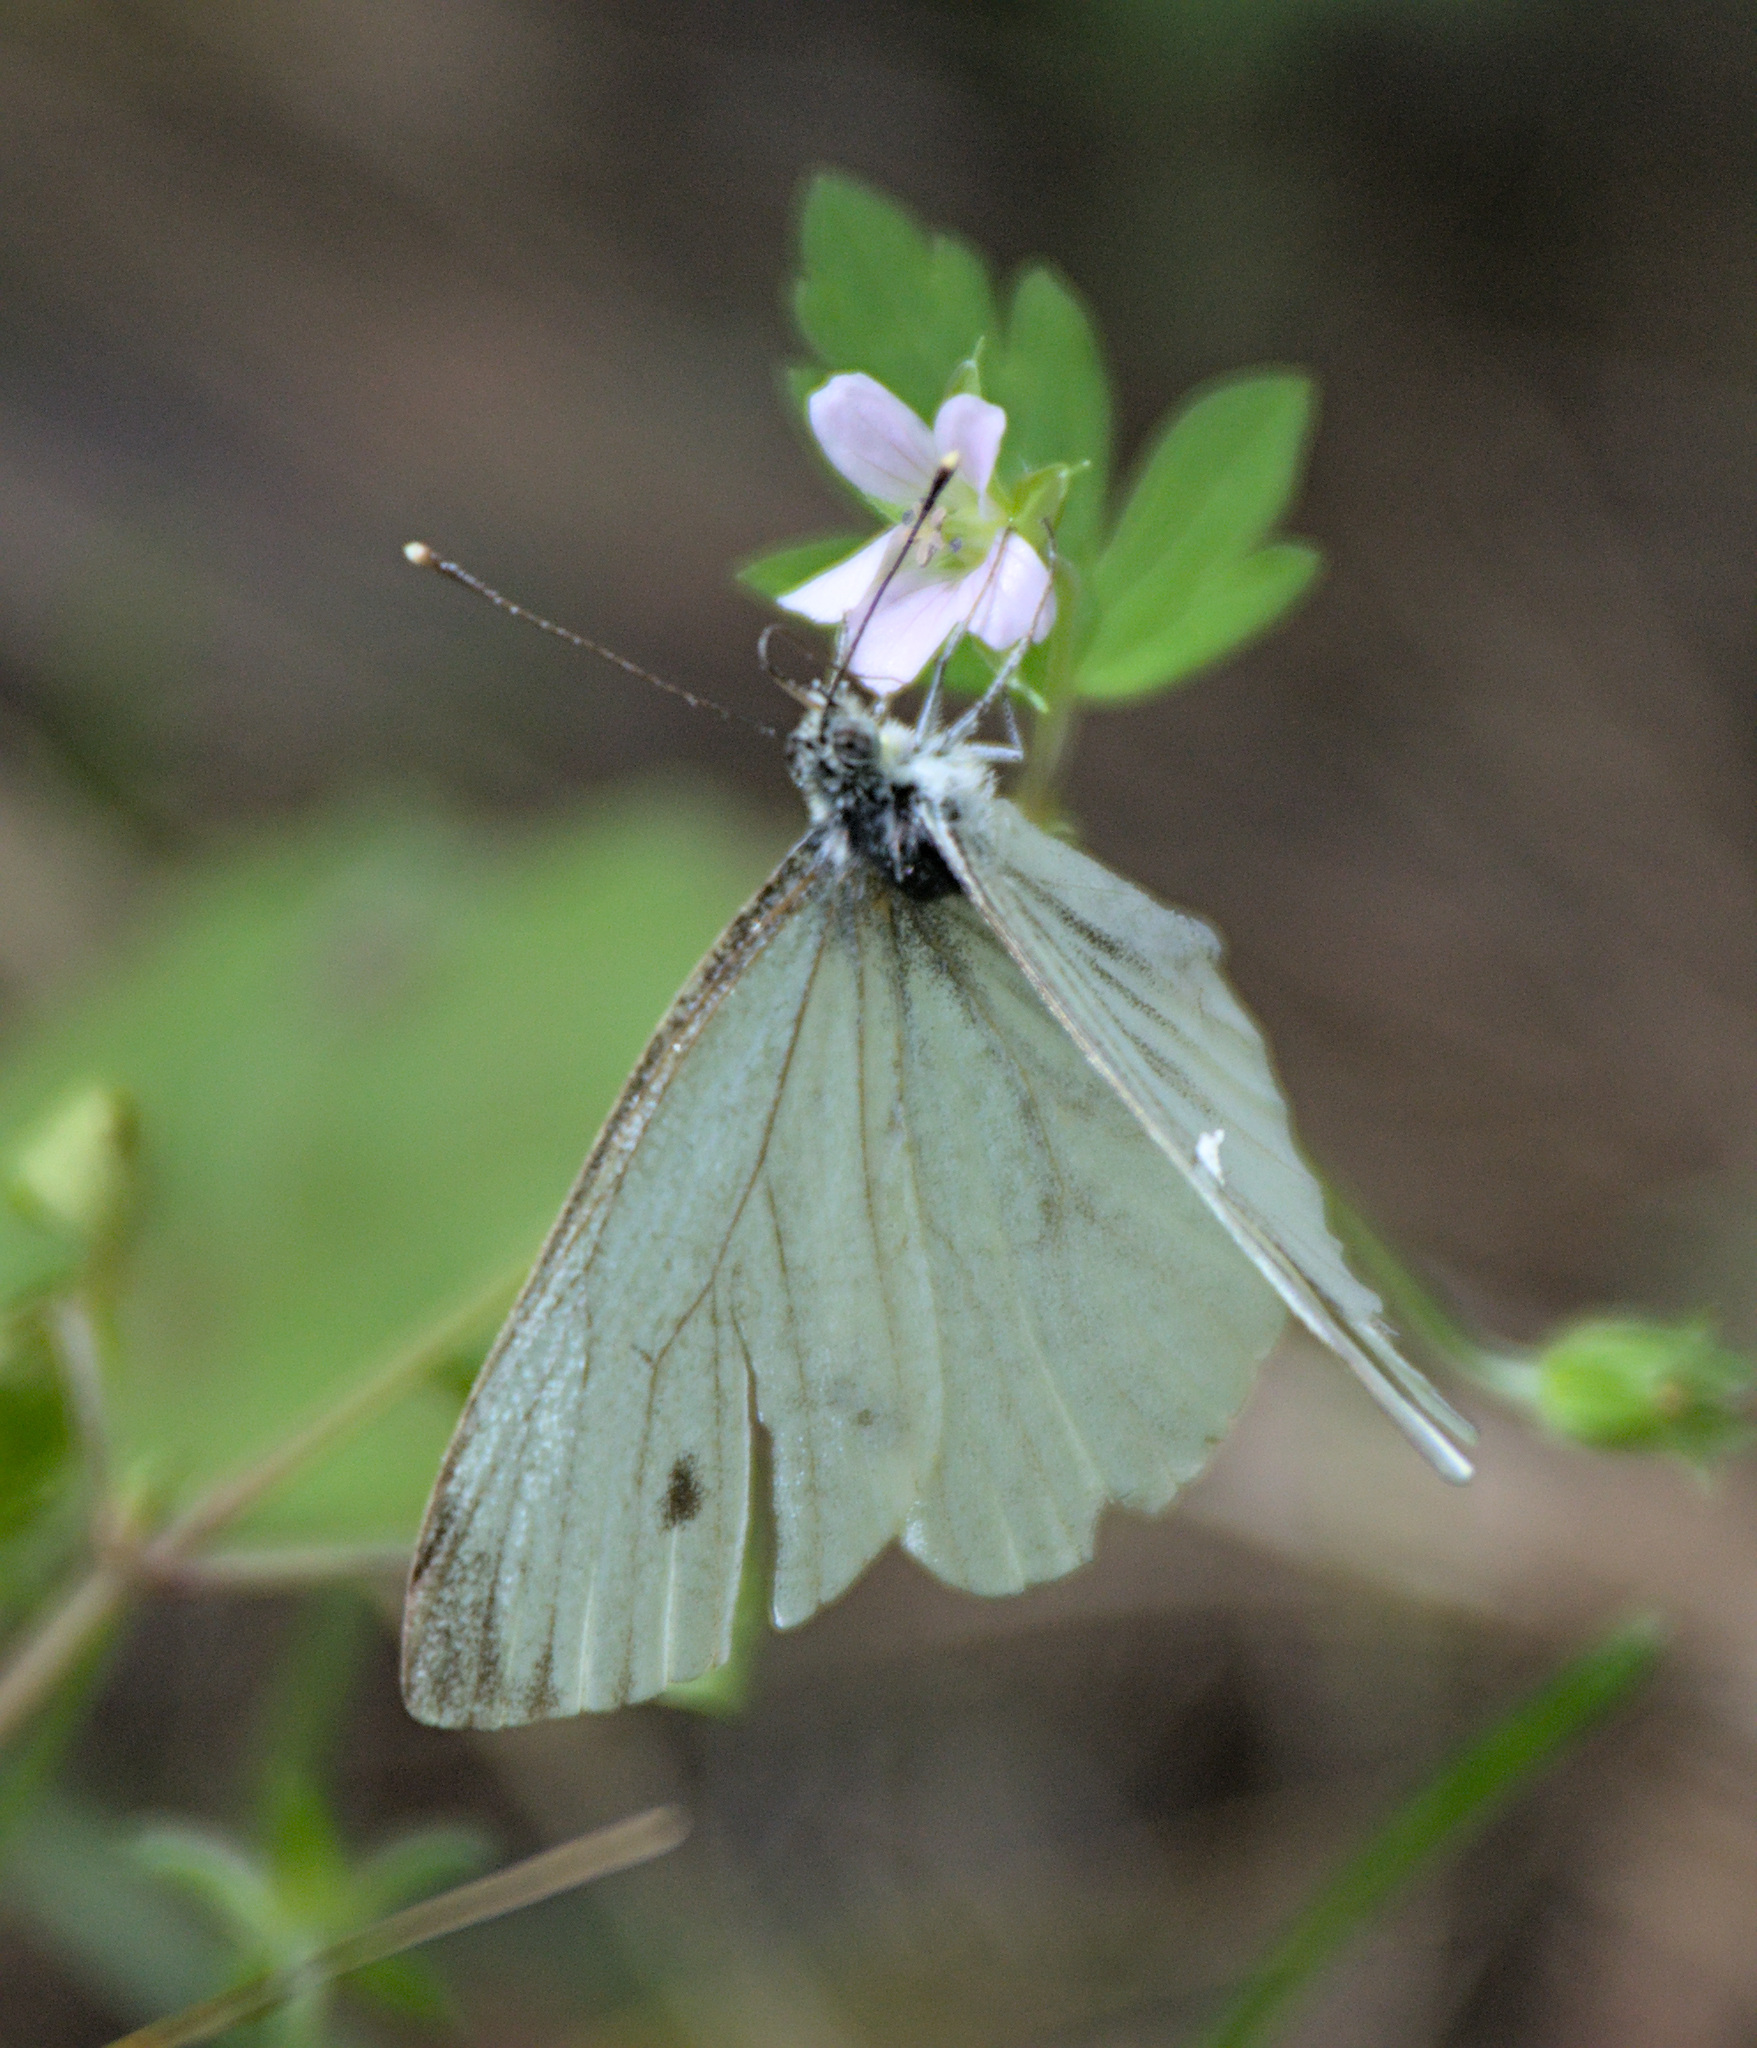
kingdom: Animalia
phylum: Arthropoda
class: Insecta
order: Lepidoptera
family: Pieridae
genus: Pieris
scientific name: Pieris napi
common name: Green-veined white
